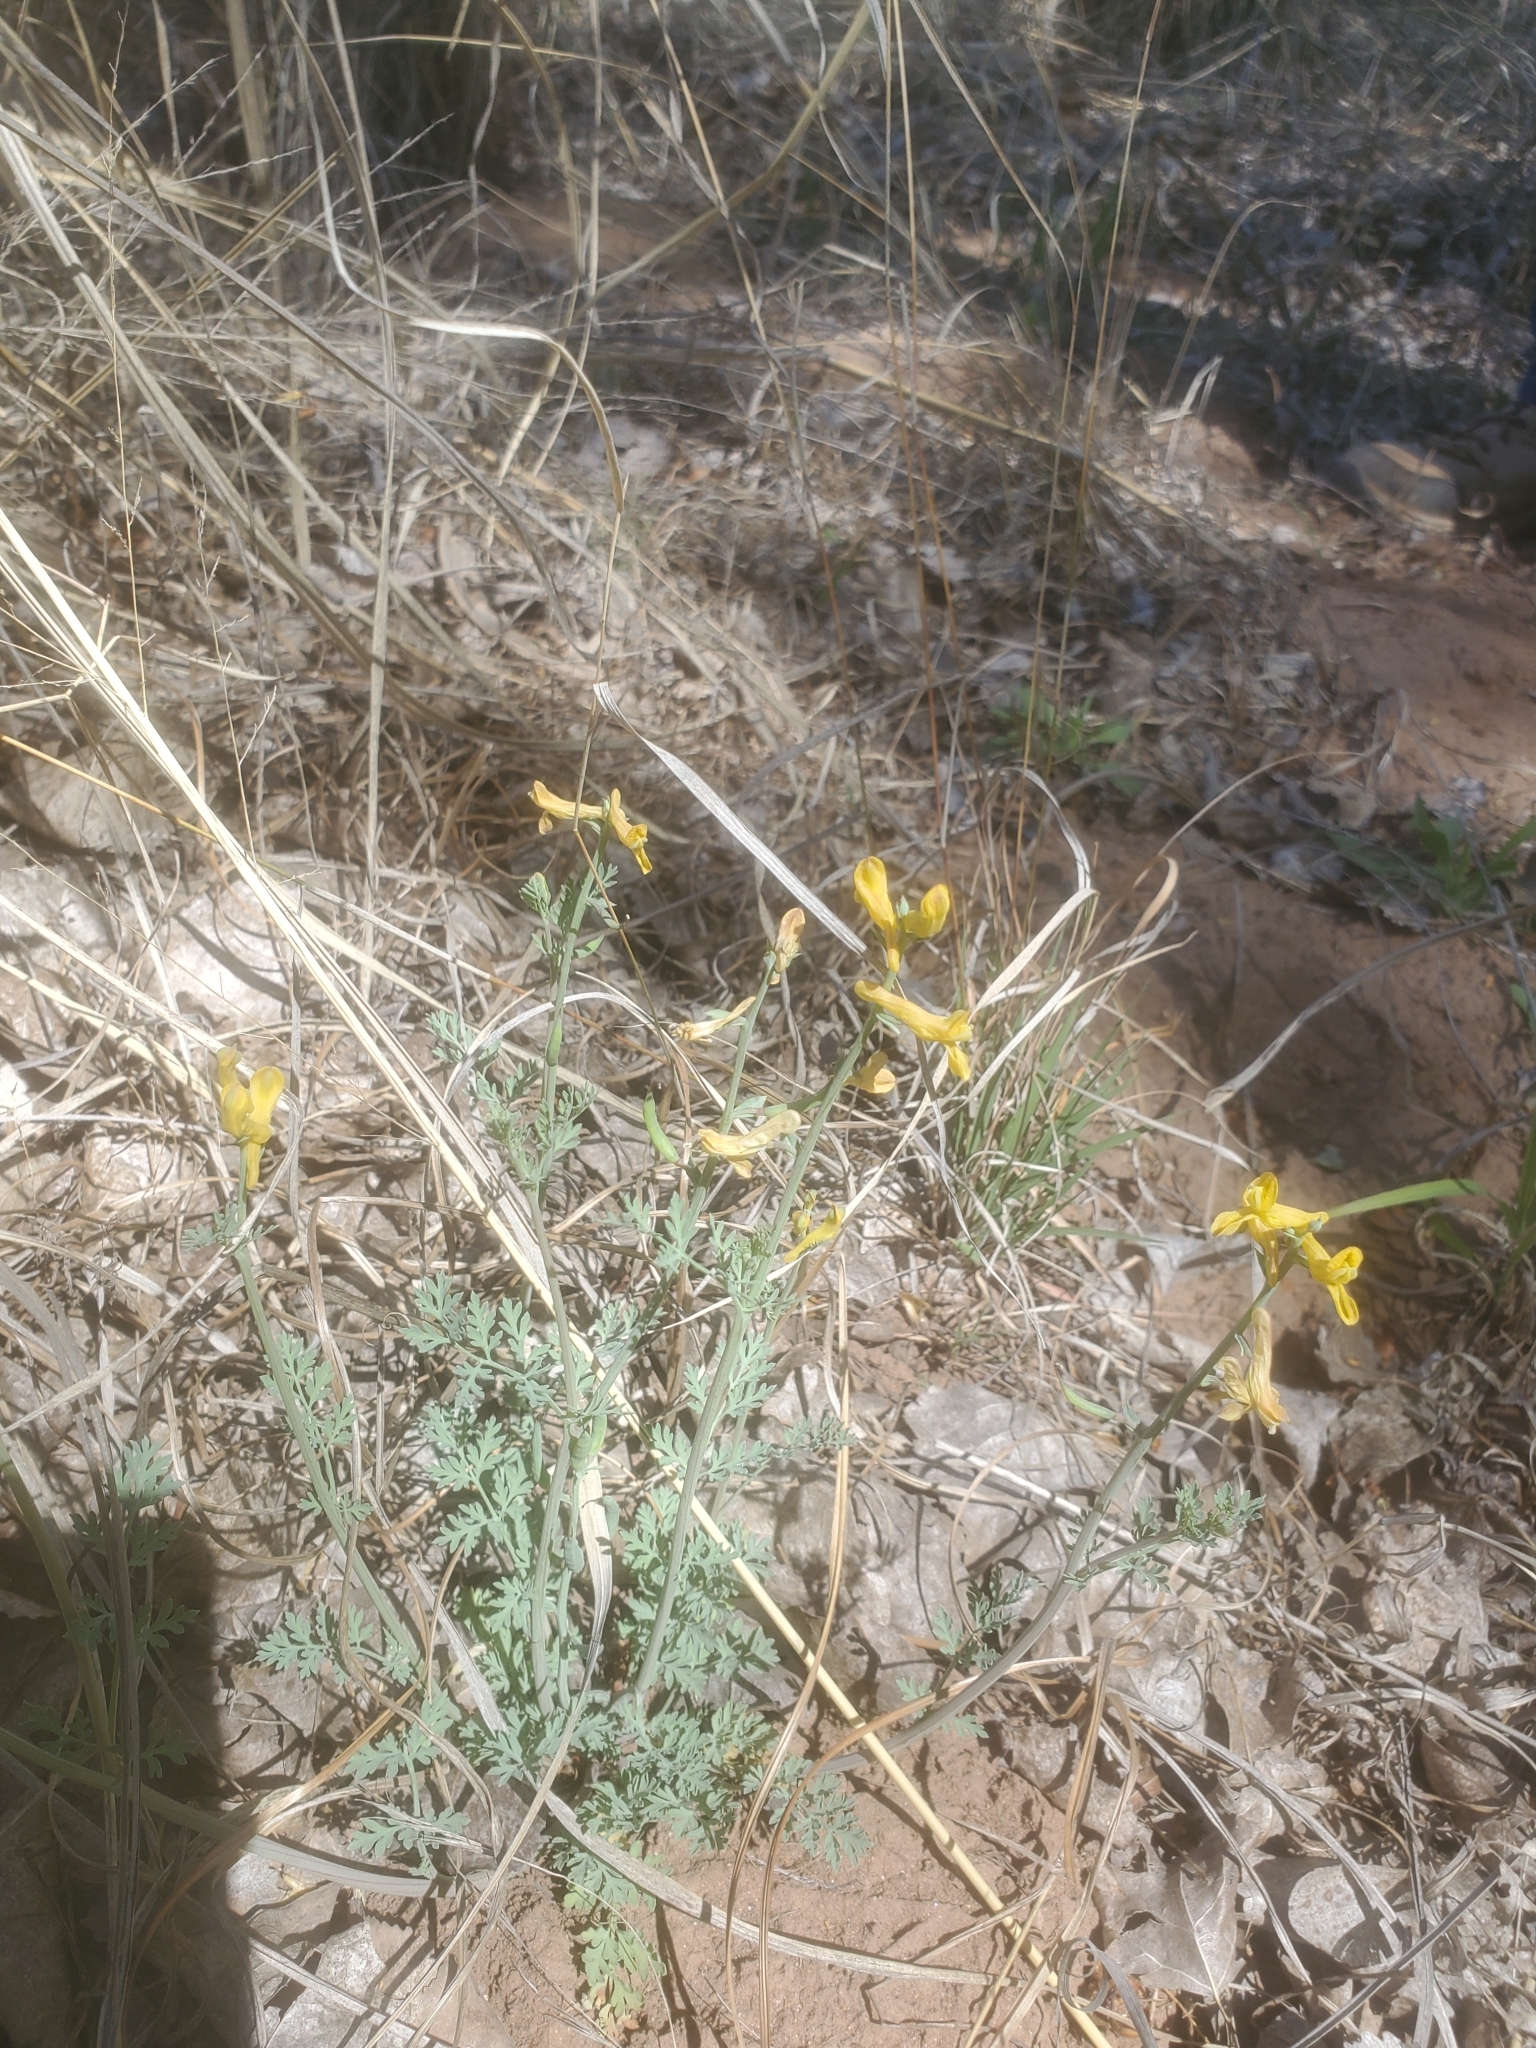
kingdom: Plantae
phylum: Tracheophyta
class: Magnoliopsida
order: Ranunculales
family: Papaveraceae
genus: Corydalis
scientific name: Corydalis aurea
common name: Golden corydalis
